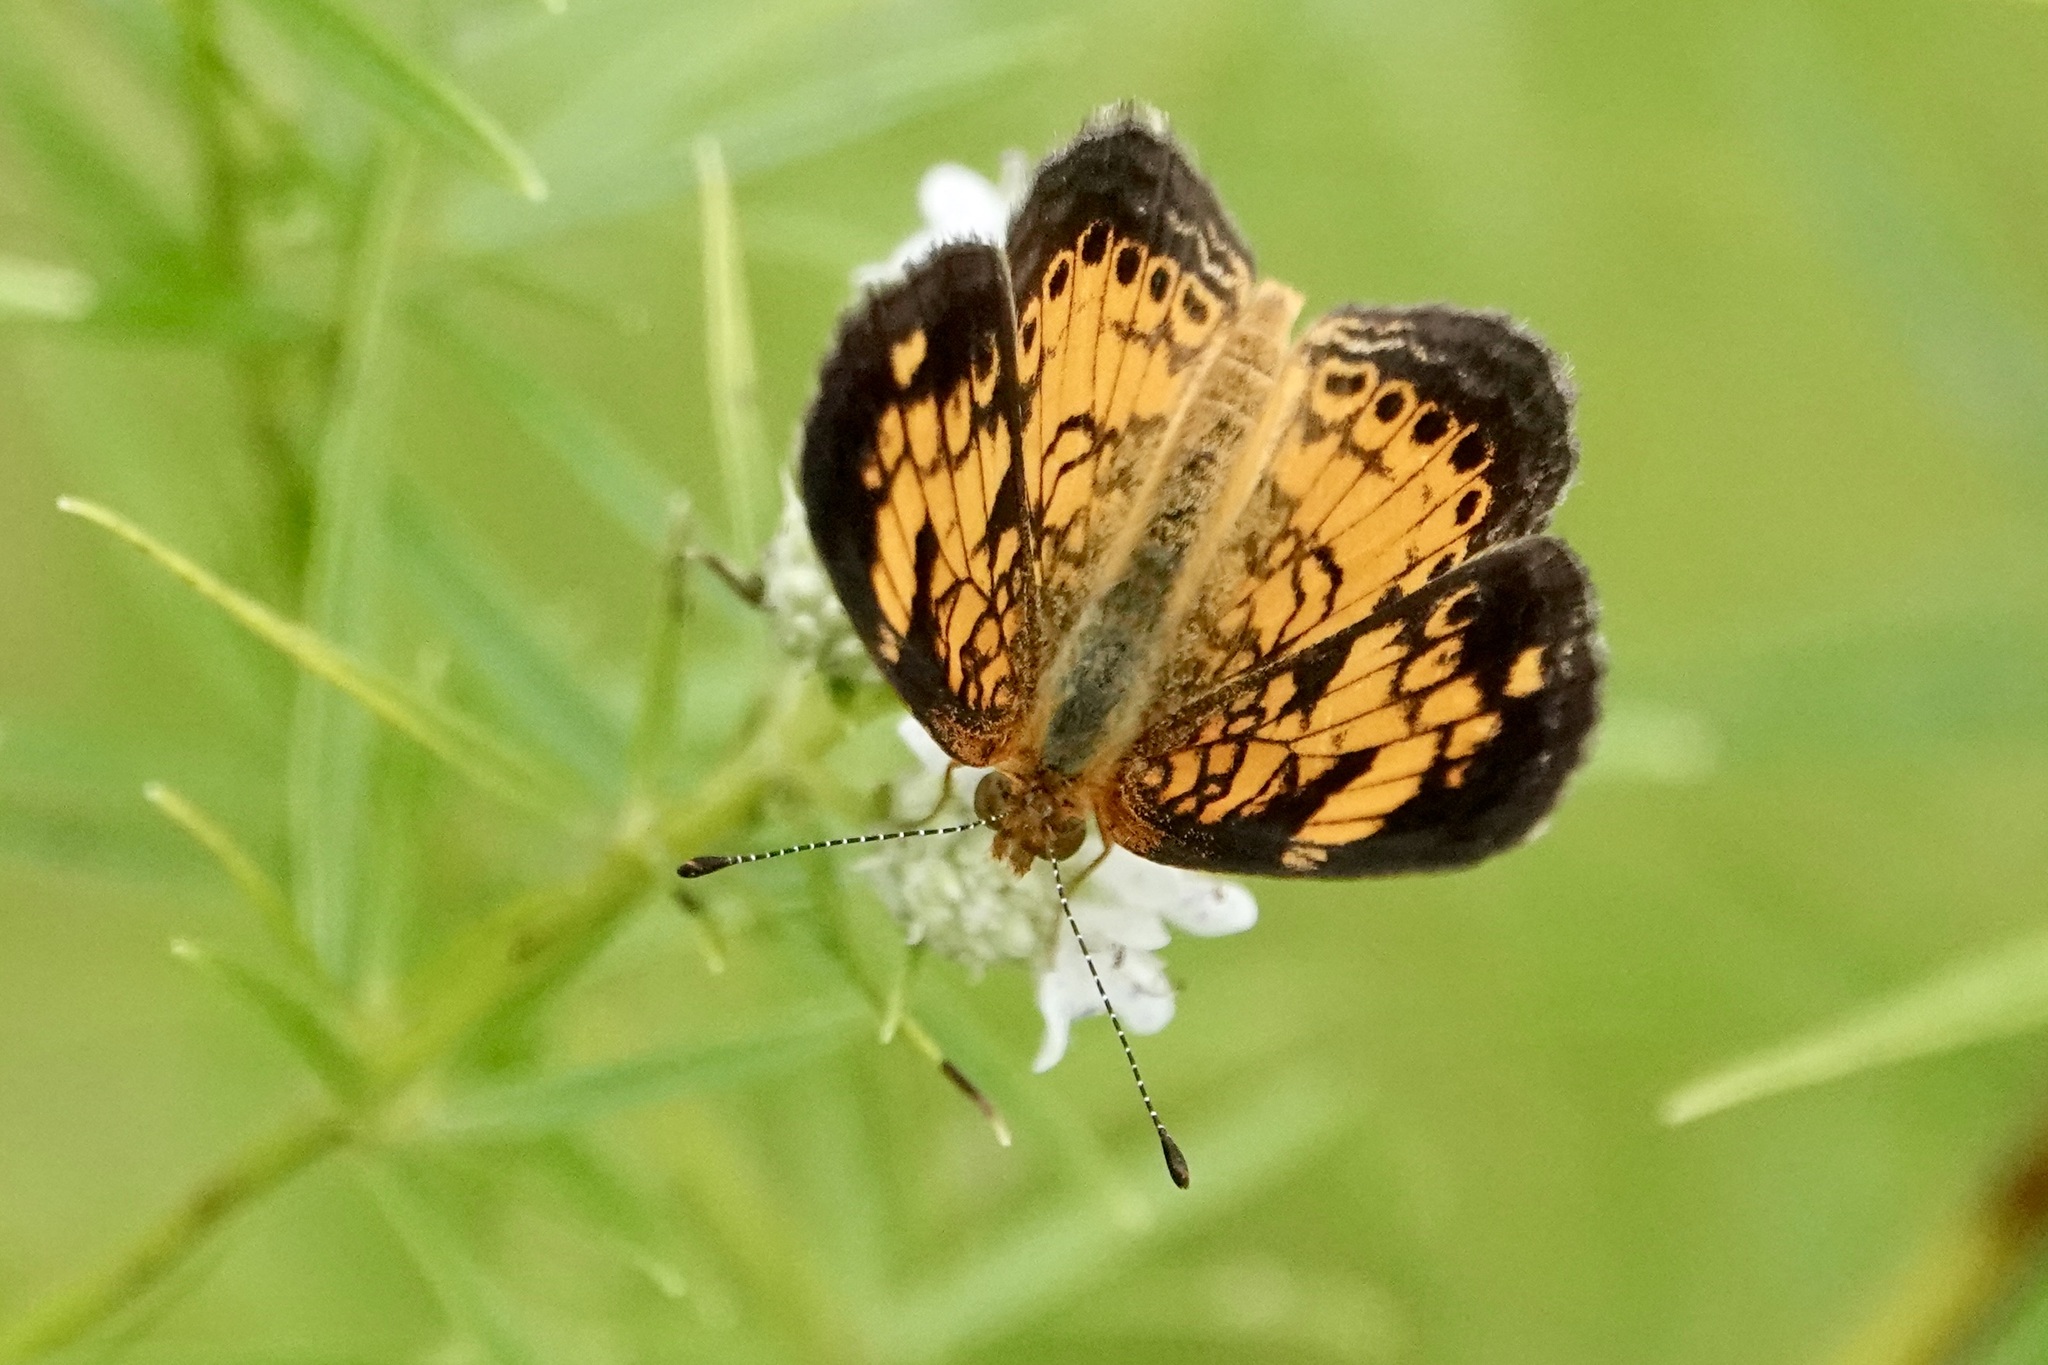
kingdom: Animalia
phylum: Arthropoda
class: Insecta
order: Lepidoptera
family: Nymphalidae
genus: Phyciodes
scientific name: Phyciodes tharos
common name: Pearl crescent
